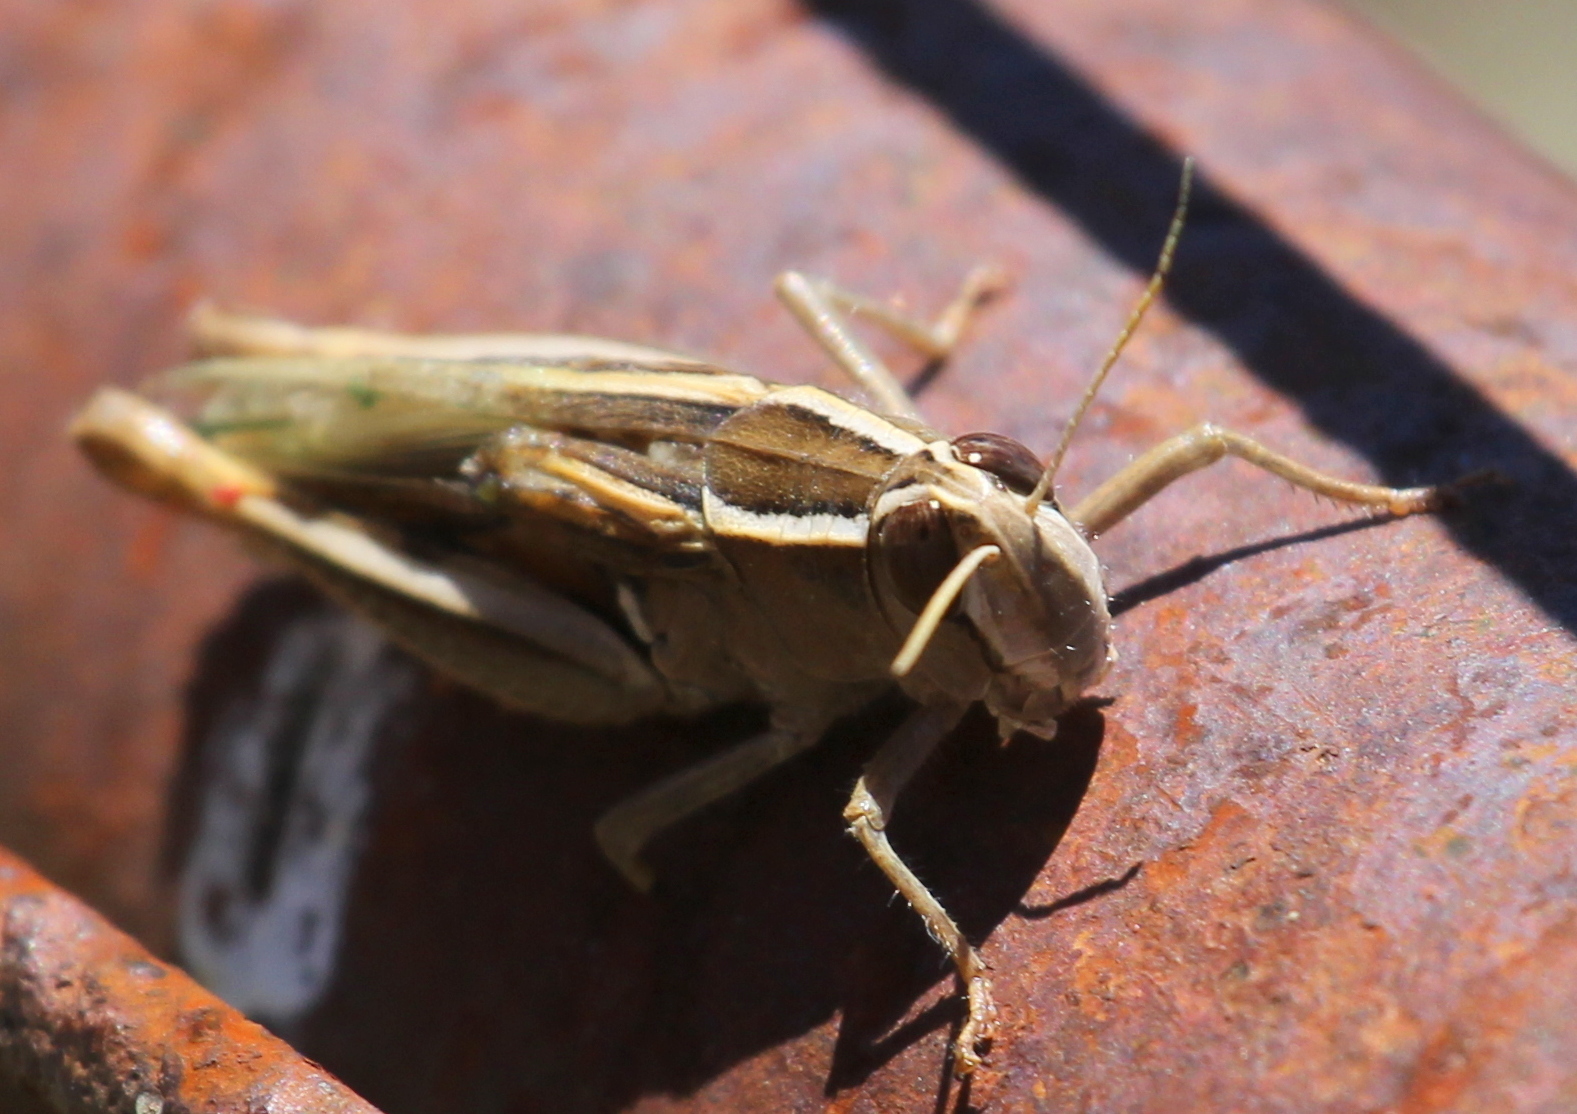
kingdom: Animalia
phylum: Arthropoda
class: Insecta
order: Orthoptera
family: Acrididae
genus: Calliptamus
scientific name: Calliptamus plebeius
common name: Canarian pincer grasshopper
